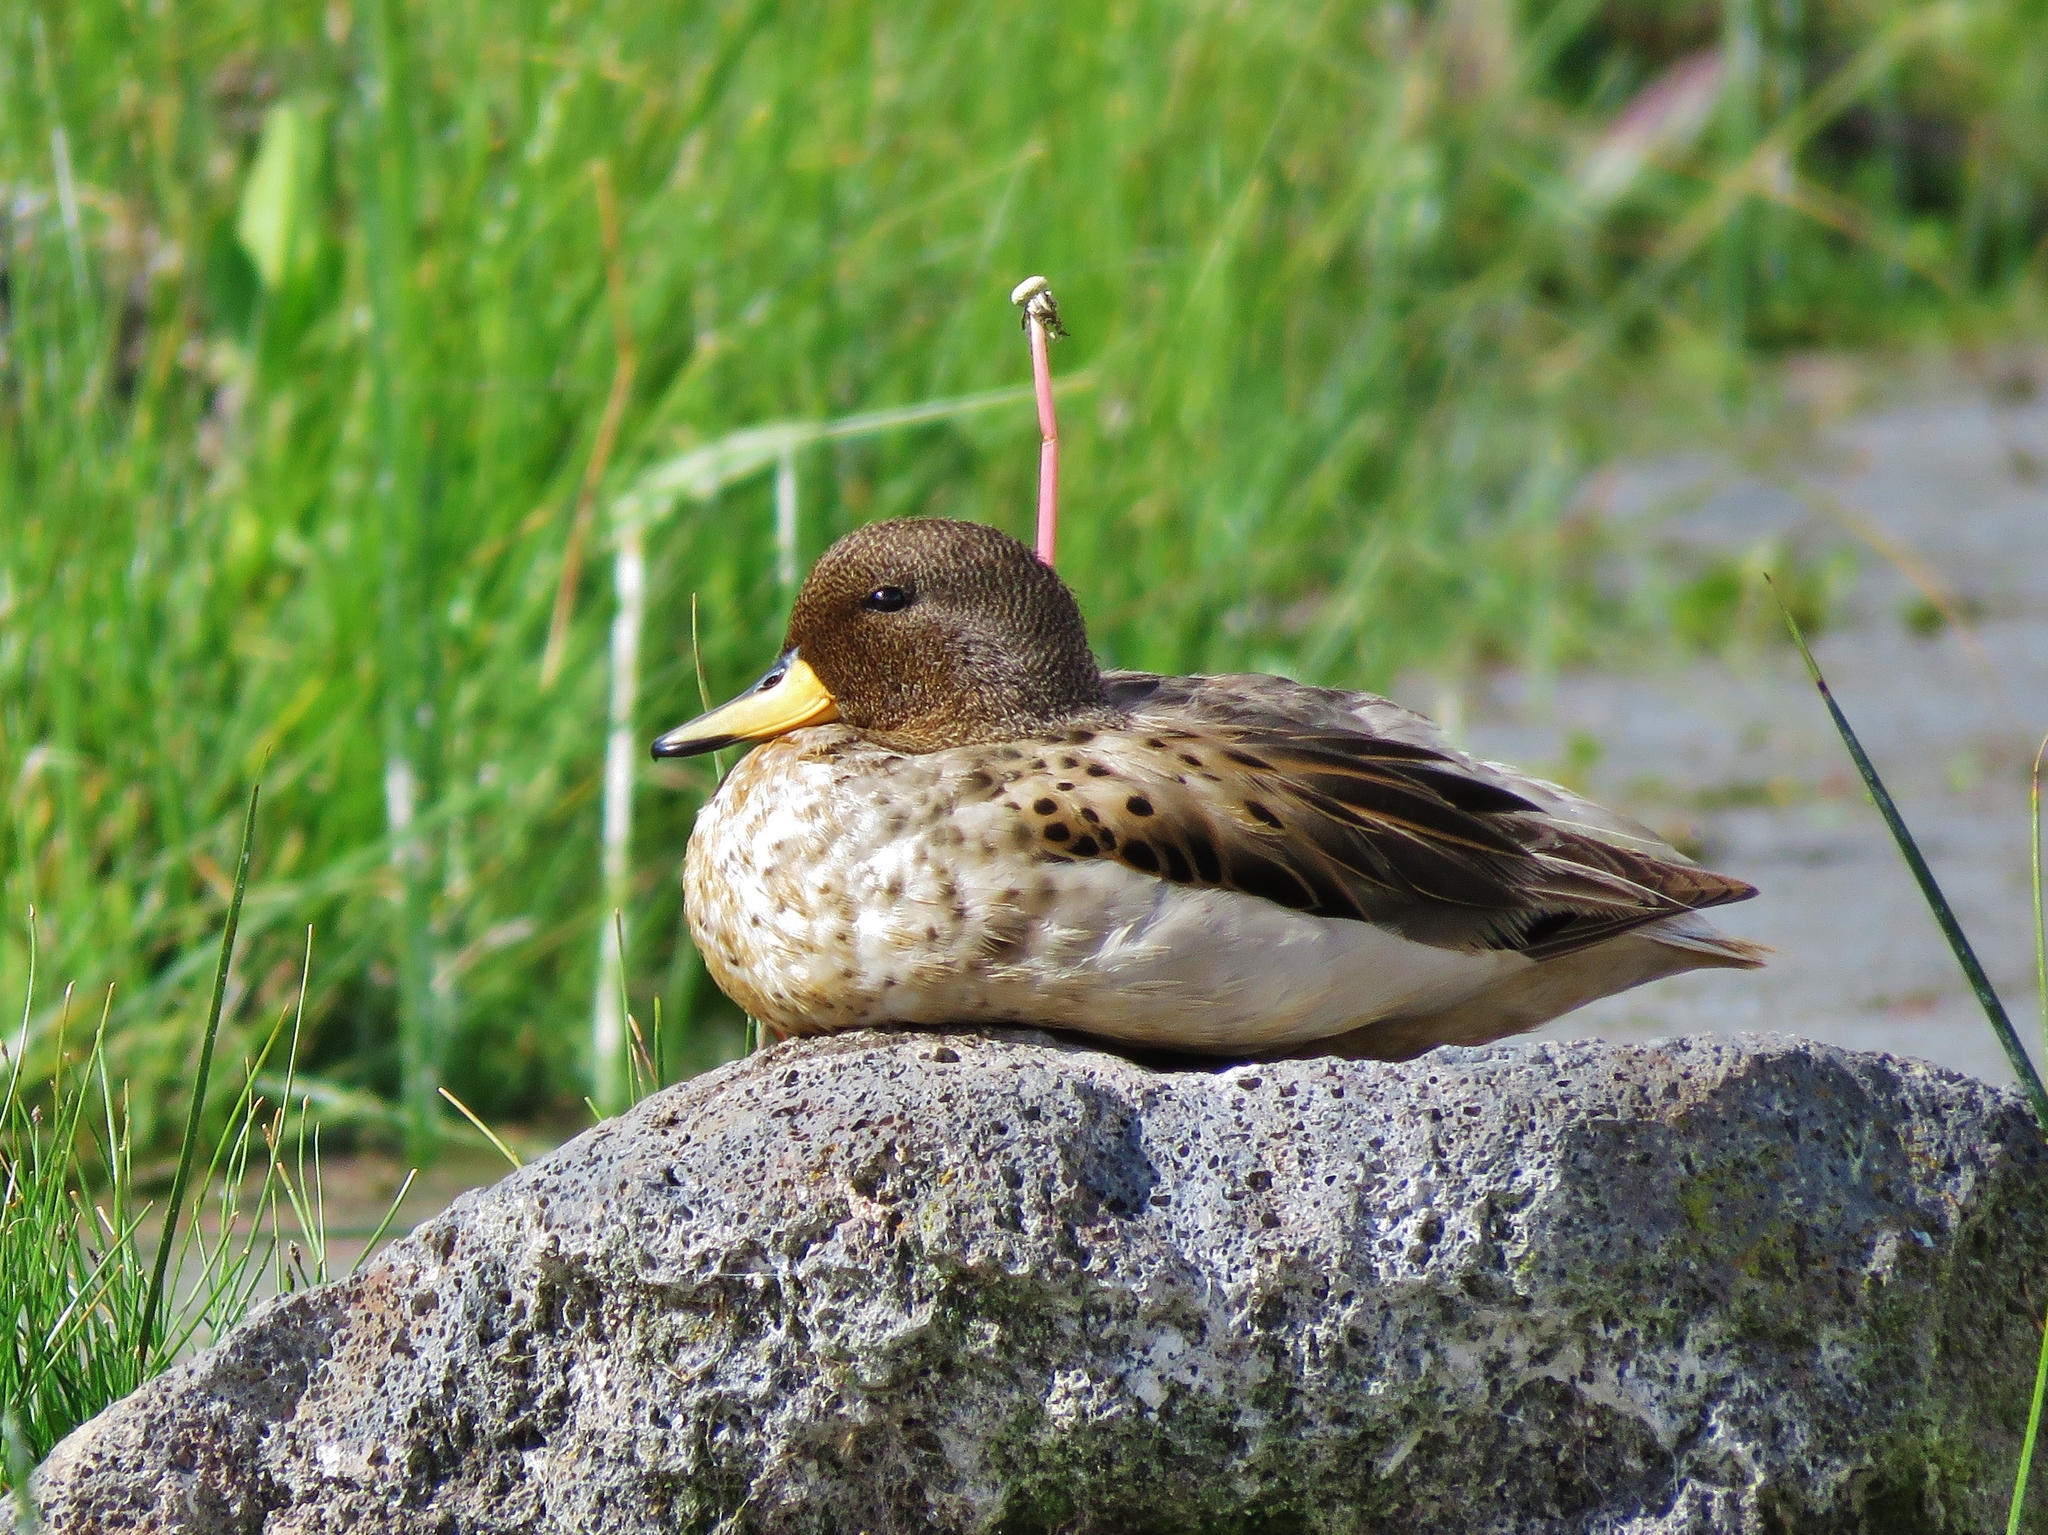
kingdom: Animalia
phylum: Chordata
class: Aves
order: Anseriformes
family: Anatidae
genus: Anas
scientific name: Anas flavirostris
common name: Yellow-billed teal
